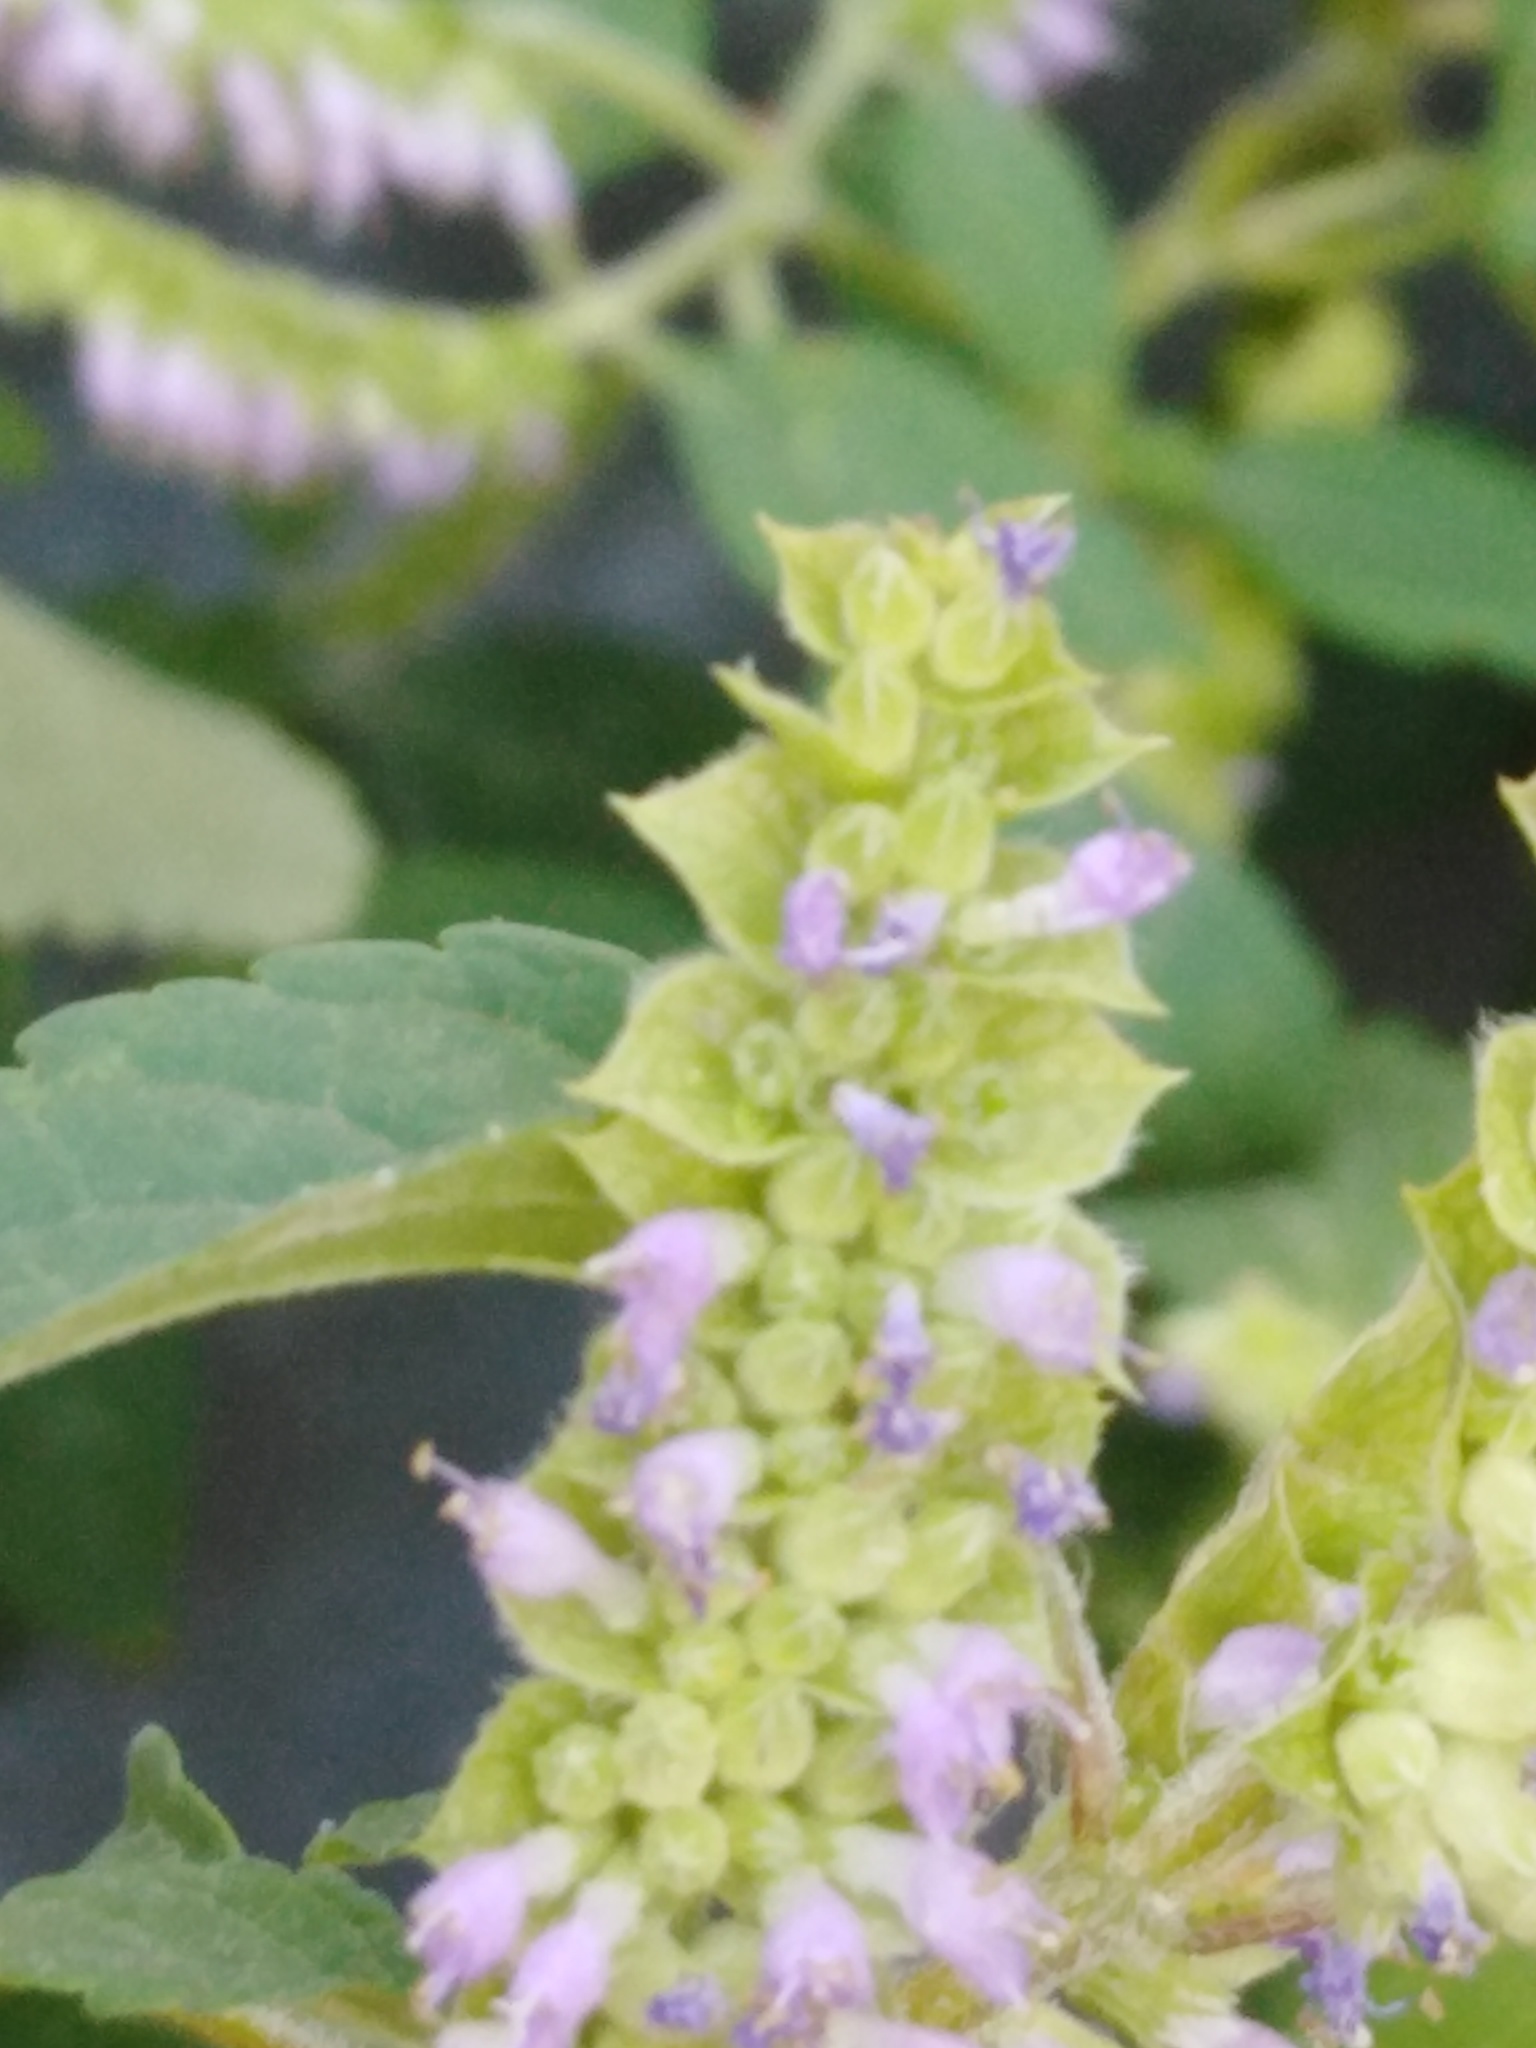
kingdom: Plantae
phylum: Tracheophyta
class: Magnoliopsida
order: Lamiales
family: Lamiaceae
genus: Elsholtzia
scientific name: Elsholtzia ciliata
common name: Ciliate elsholtzia
